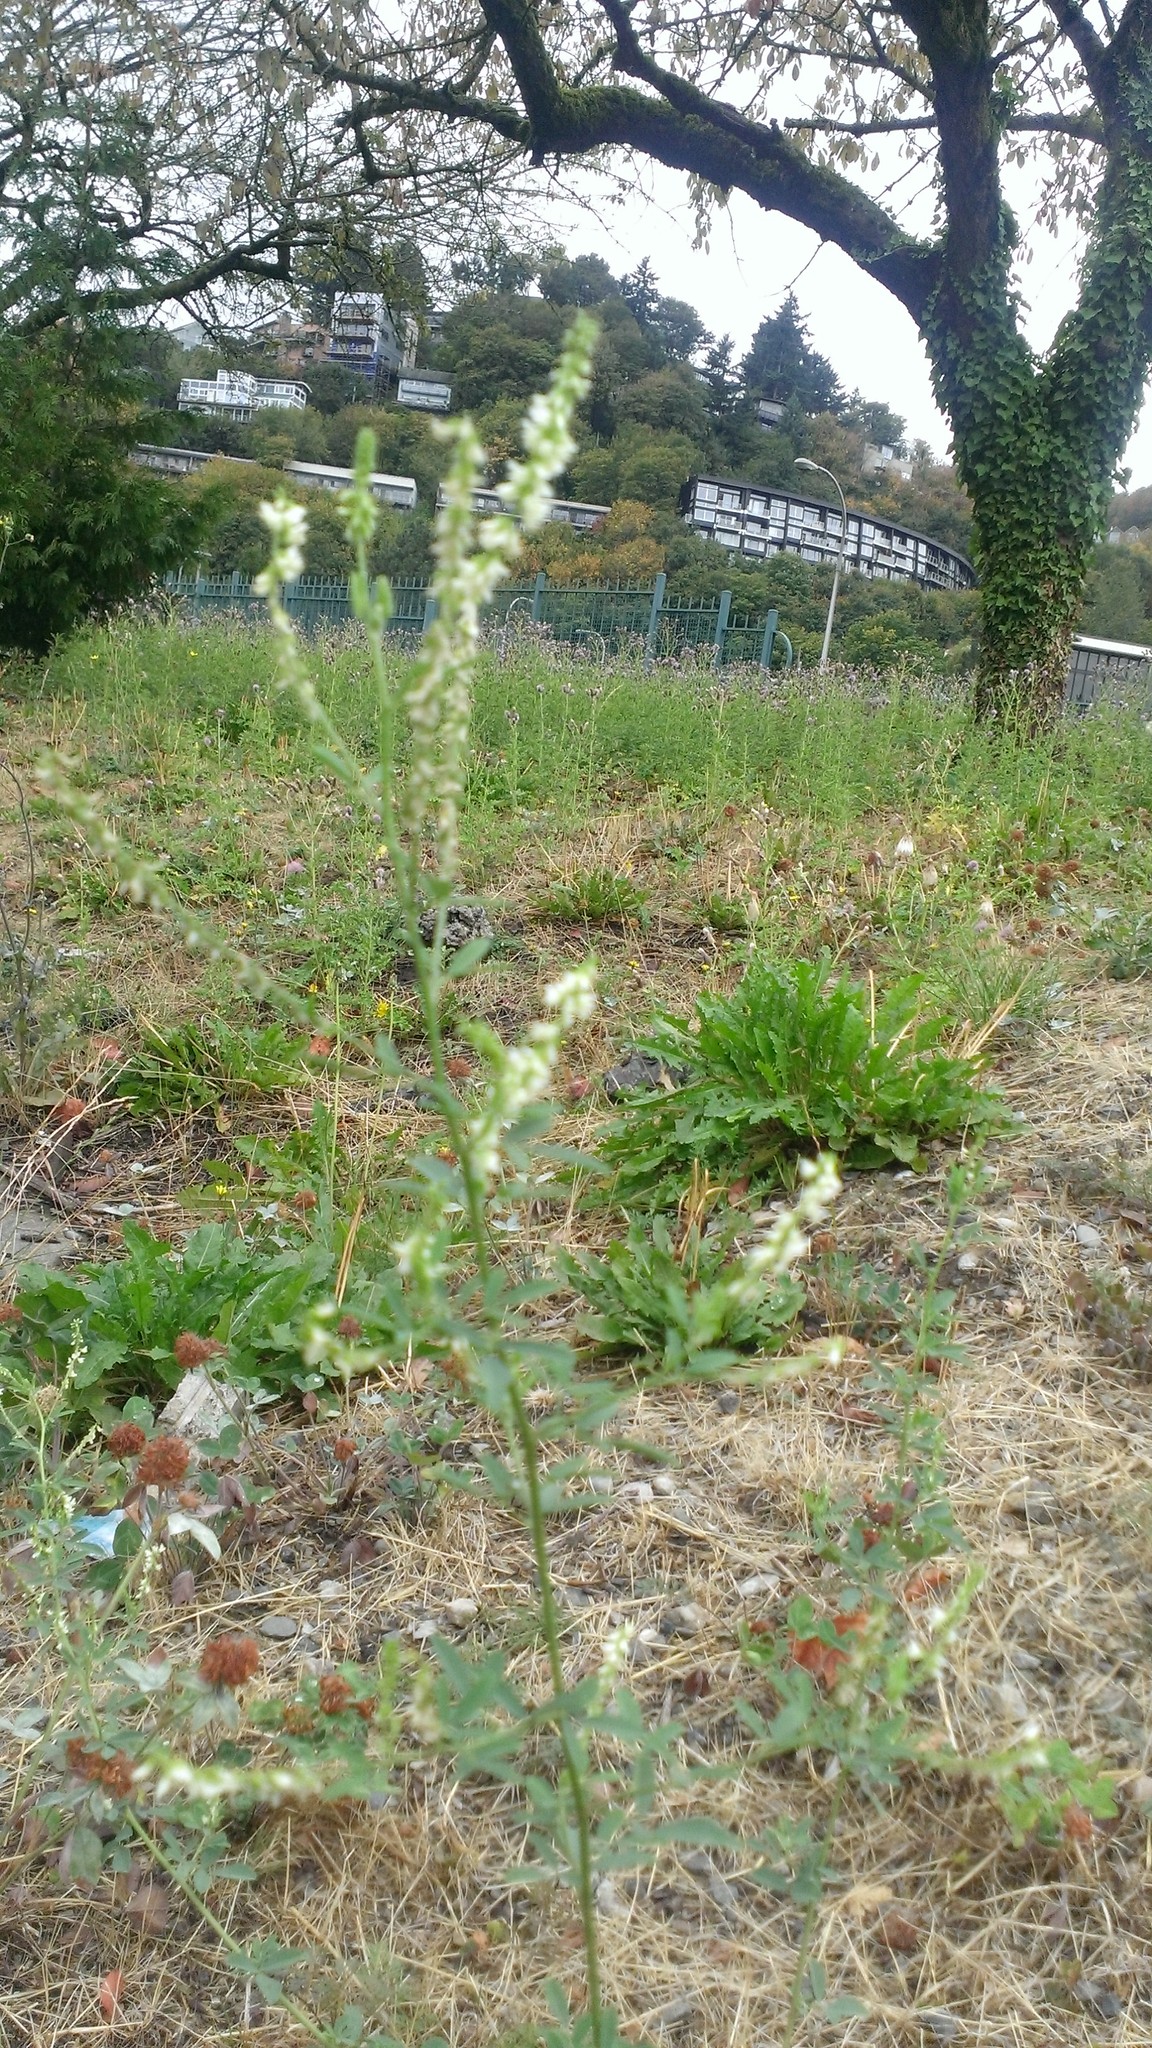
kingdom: Plantae
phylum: Tracheophyta
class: Magnoliopsida
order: Fabales
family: Fabaceae
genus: Melilotus
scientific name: Melilotus albus
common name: White melilot
